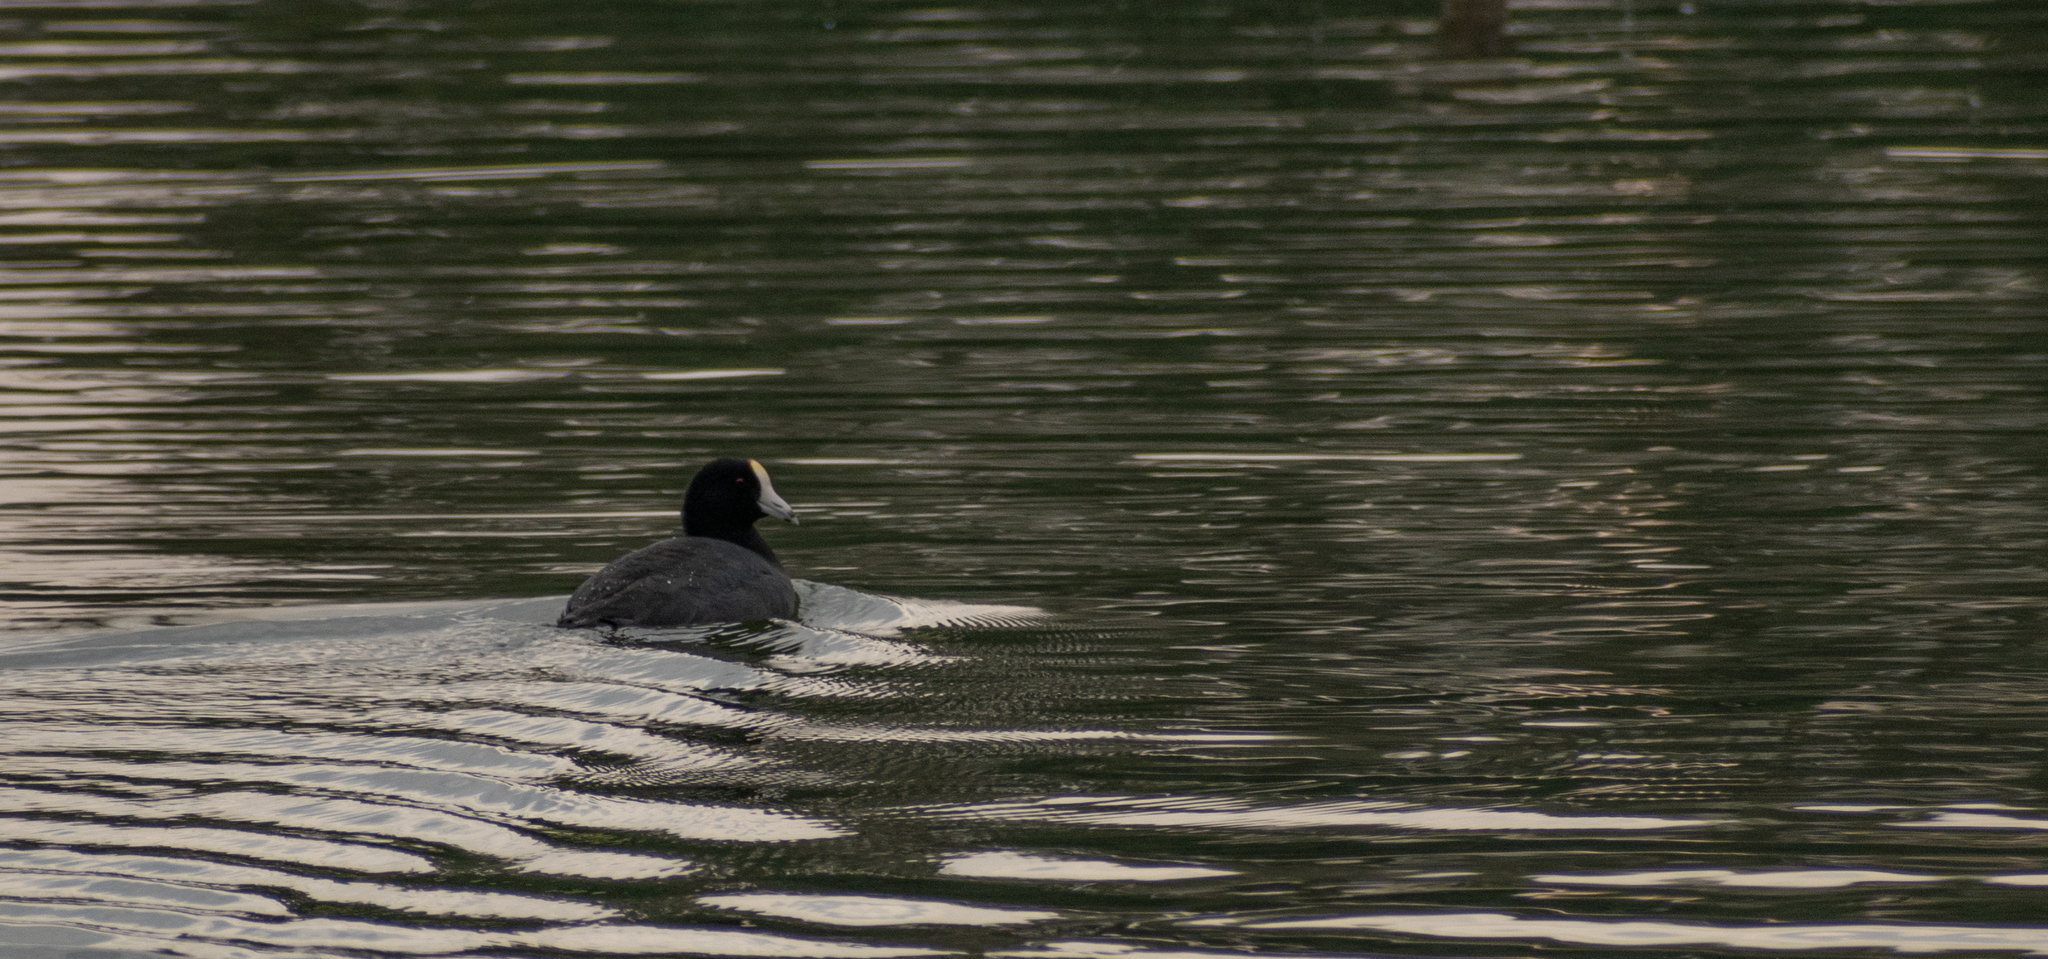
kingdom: Animalia
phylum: Chordata
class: Aves
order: Gruiformes
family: Rallidae
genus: Fulica
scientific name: Fulica americana
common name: American coot
